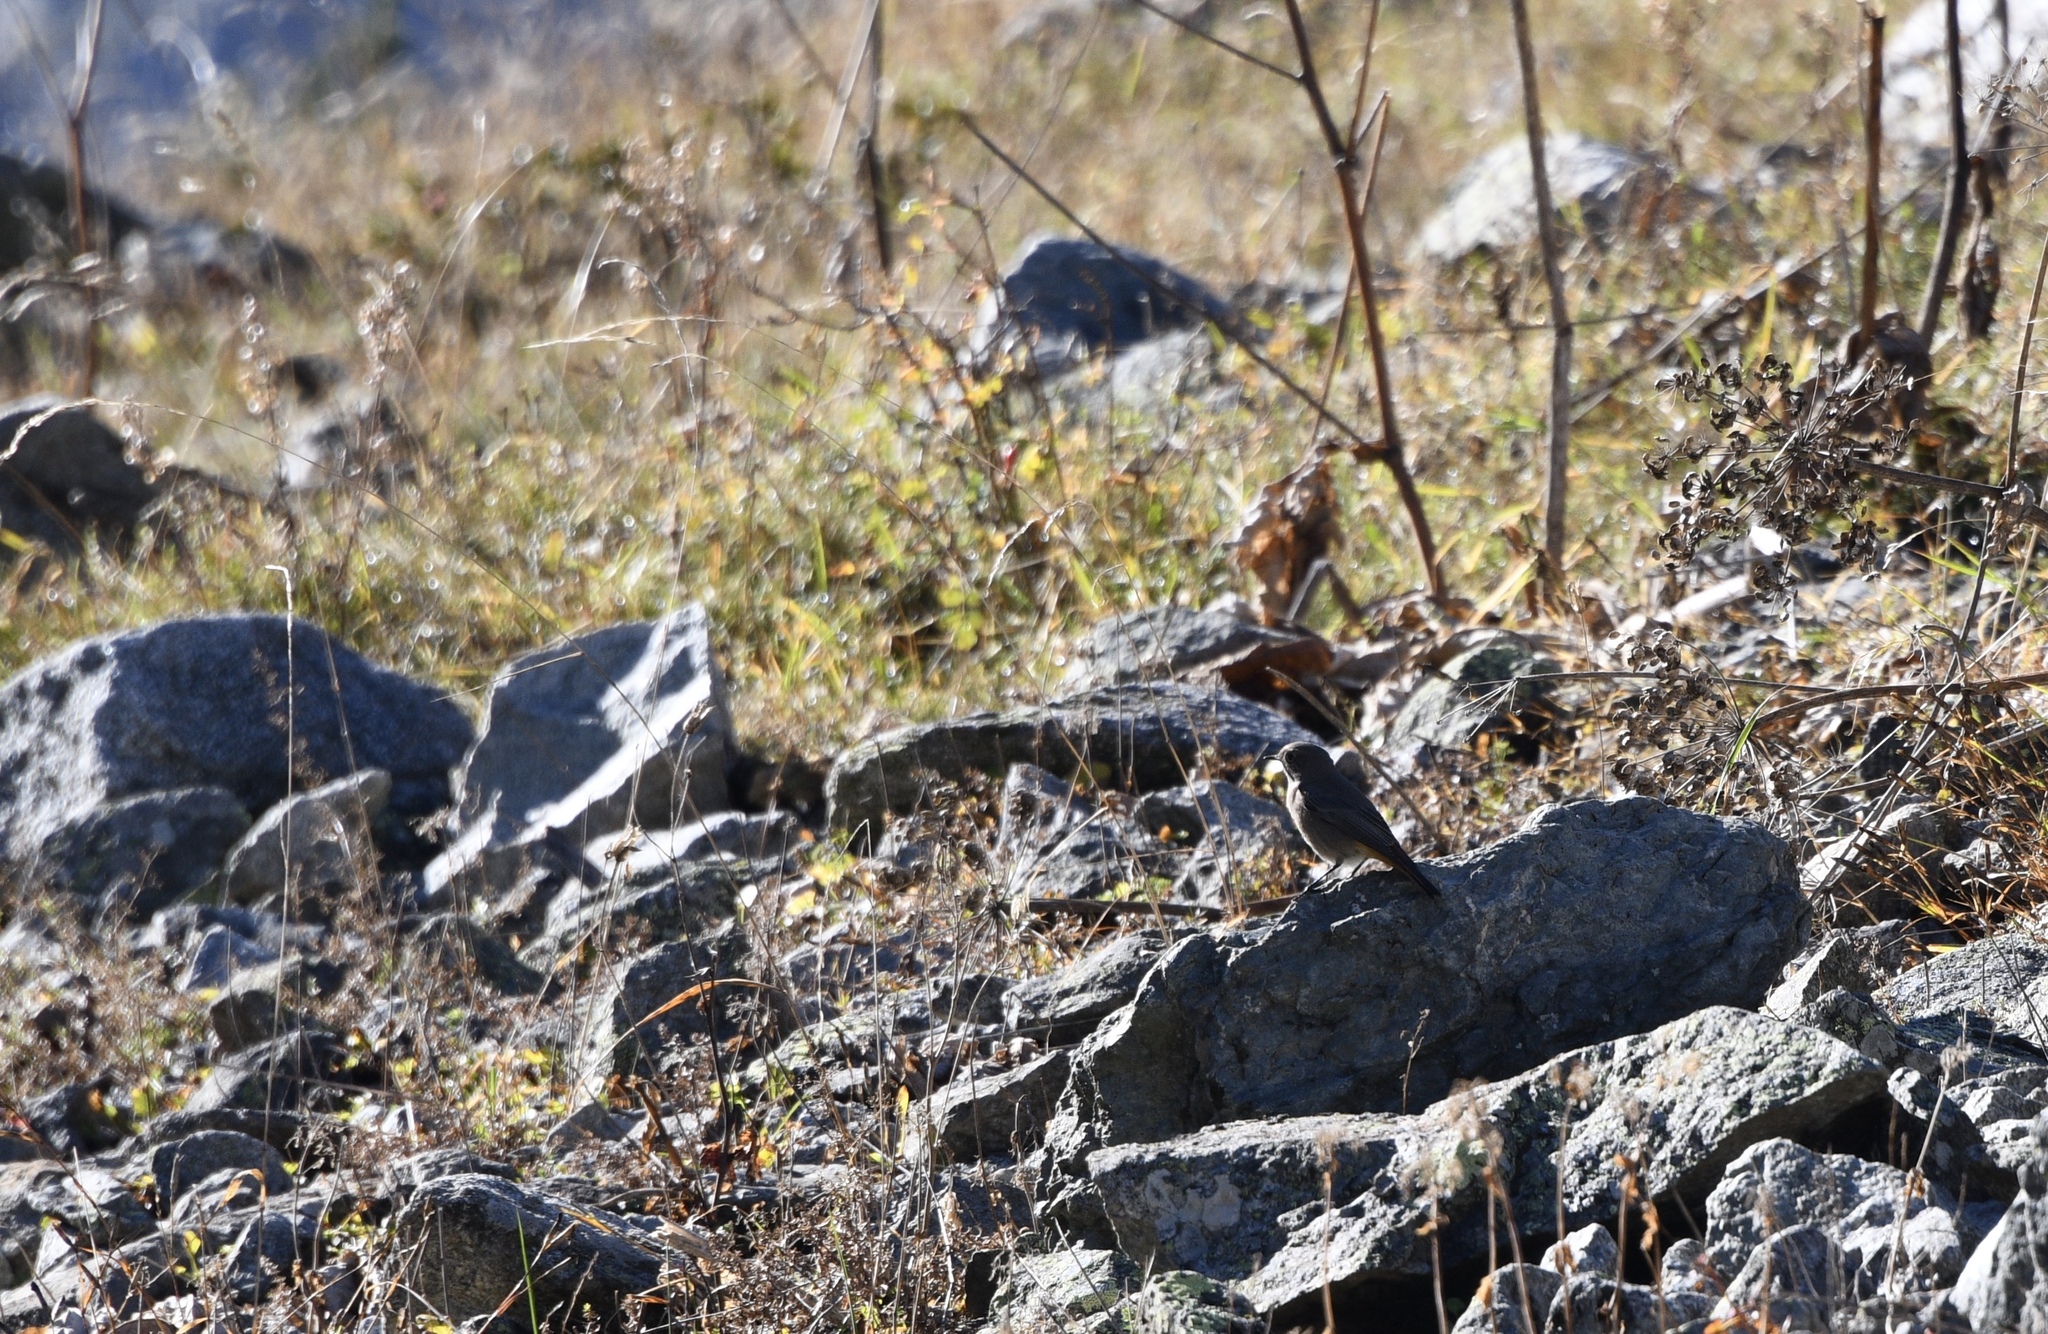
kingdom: Animalia
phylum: Chordata
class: Aves
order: Passeriformes
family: Muscicapidae
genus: Phoenicurus
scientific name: Phoenicurus ochruros
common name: Black redstart
